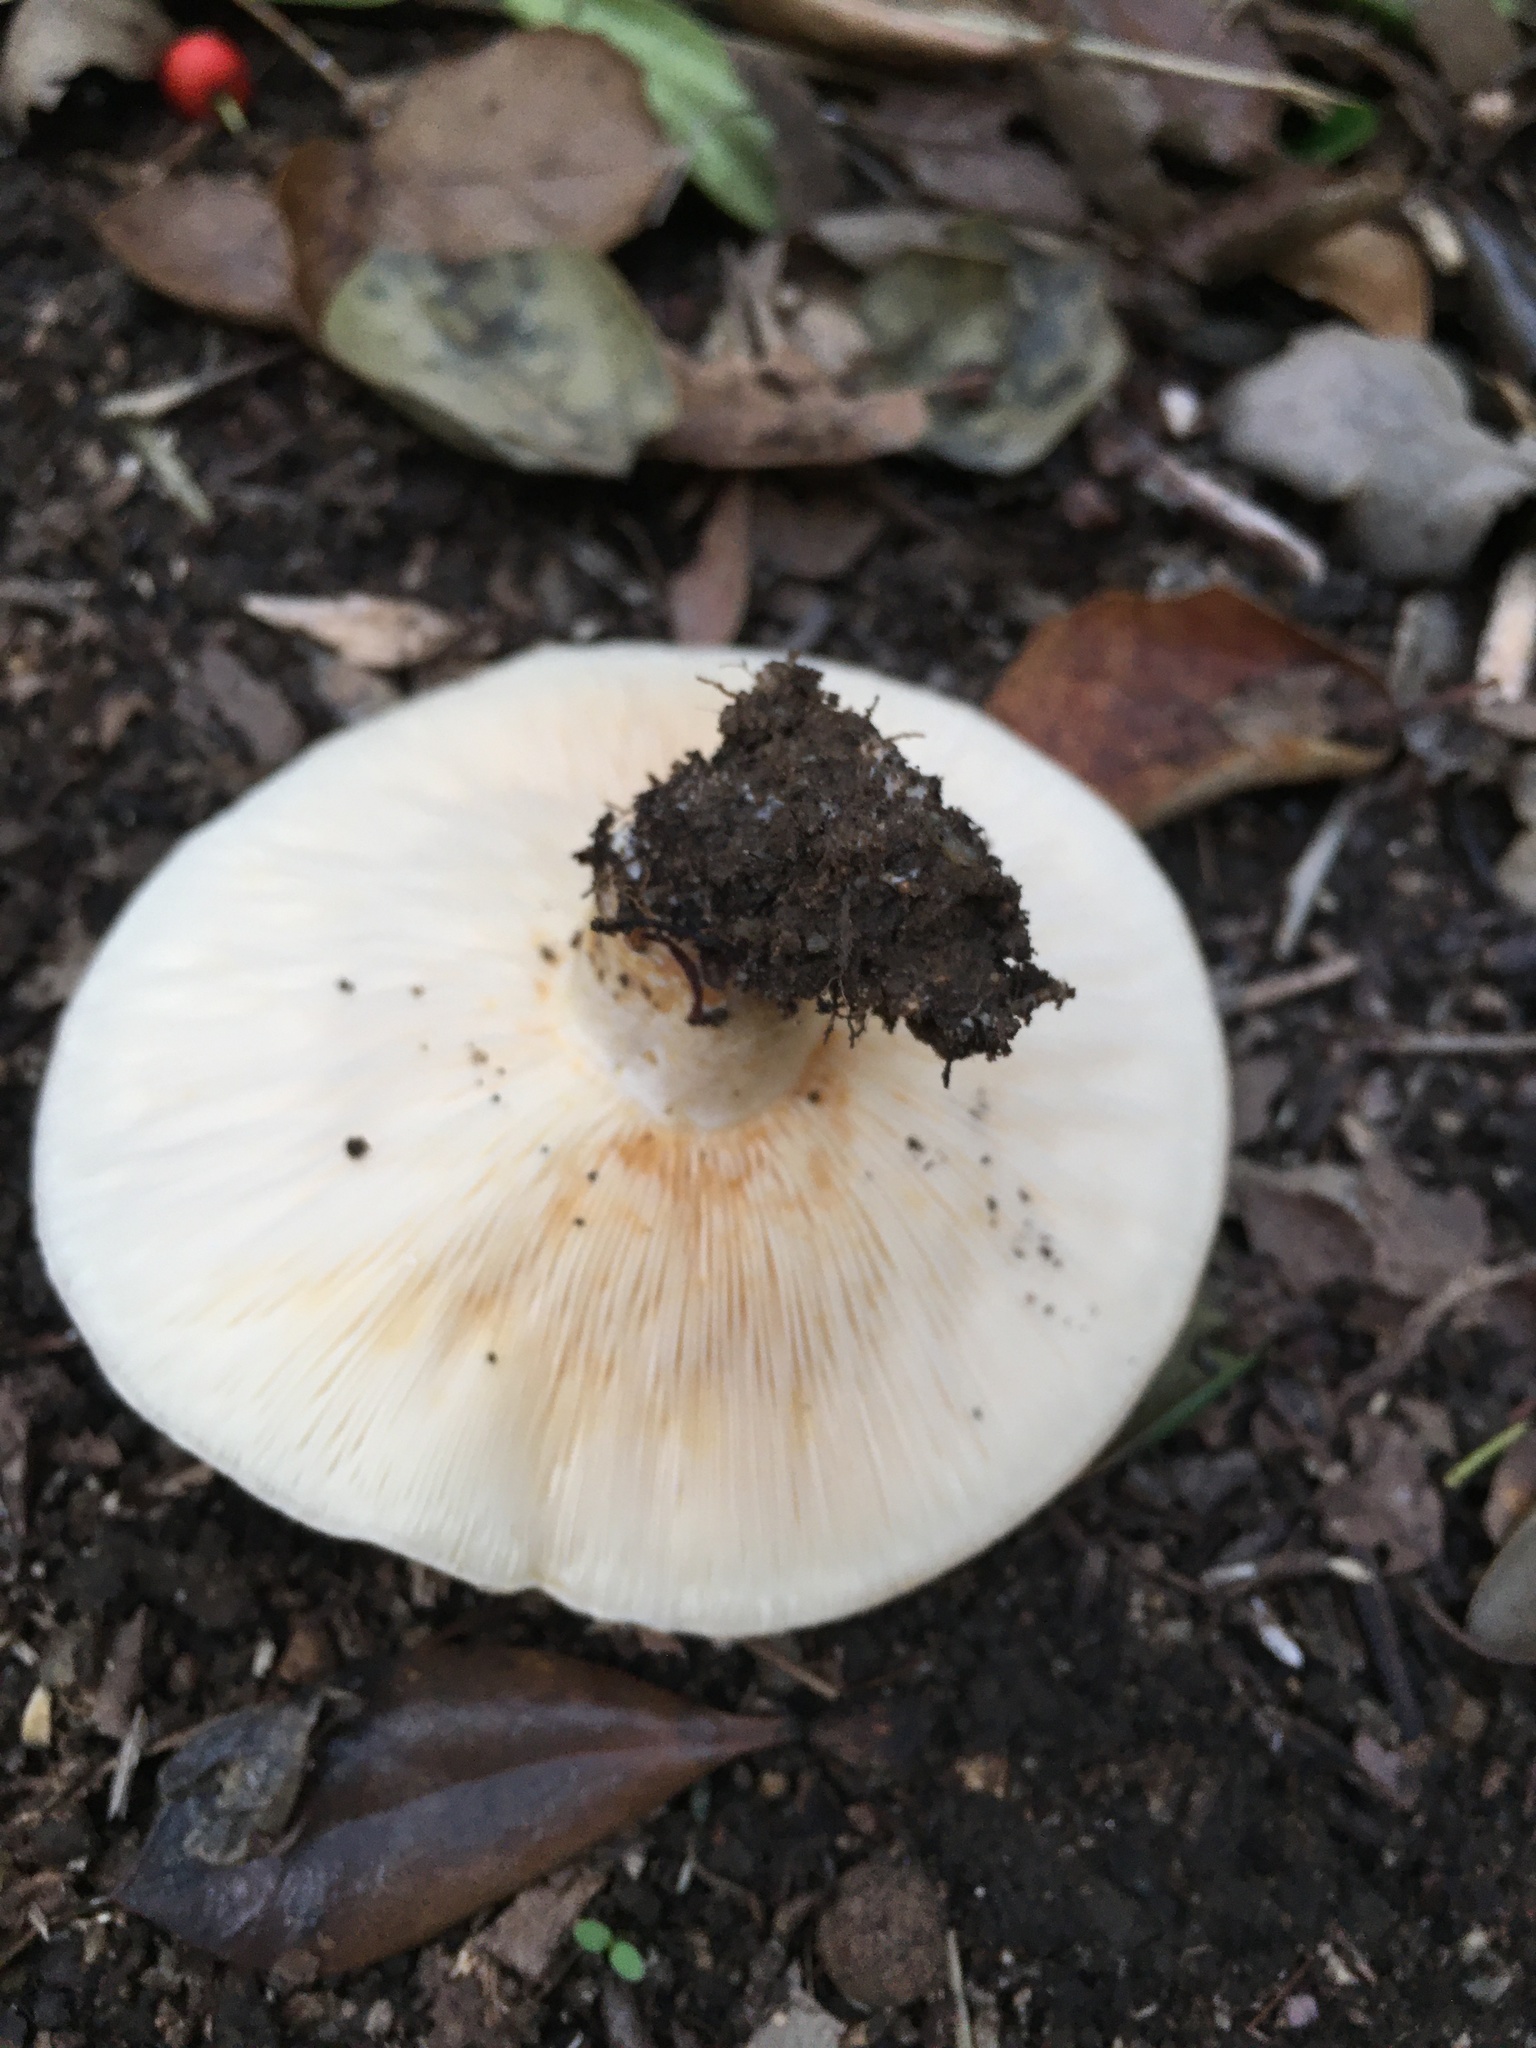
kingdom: Fungi
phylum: Basidiomycota
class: Agaricomycetes
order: Russulales
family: Russulaceae
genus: Lactarius
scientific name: Lactarius alnicola
